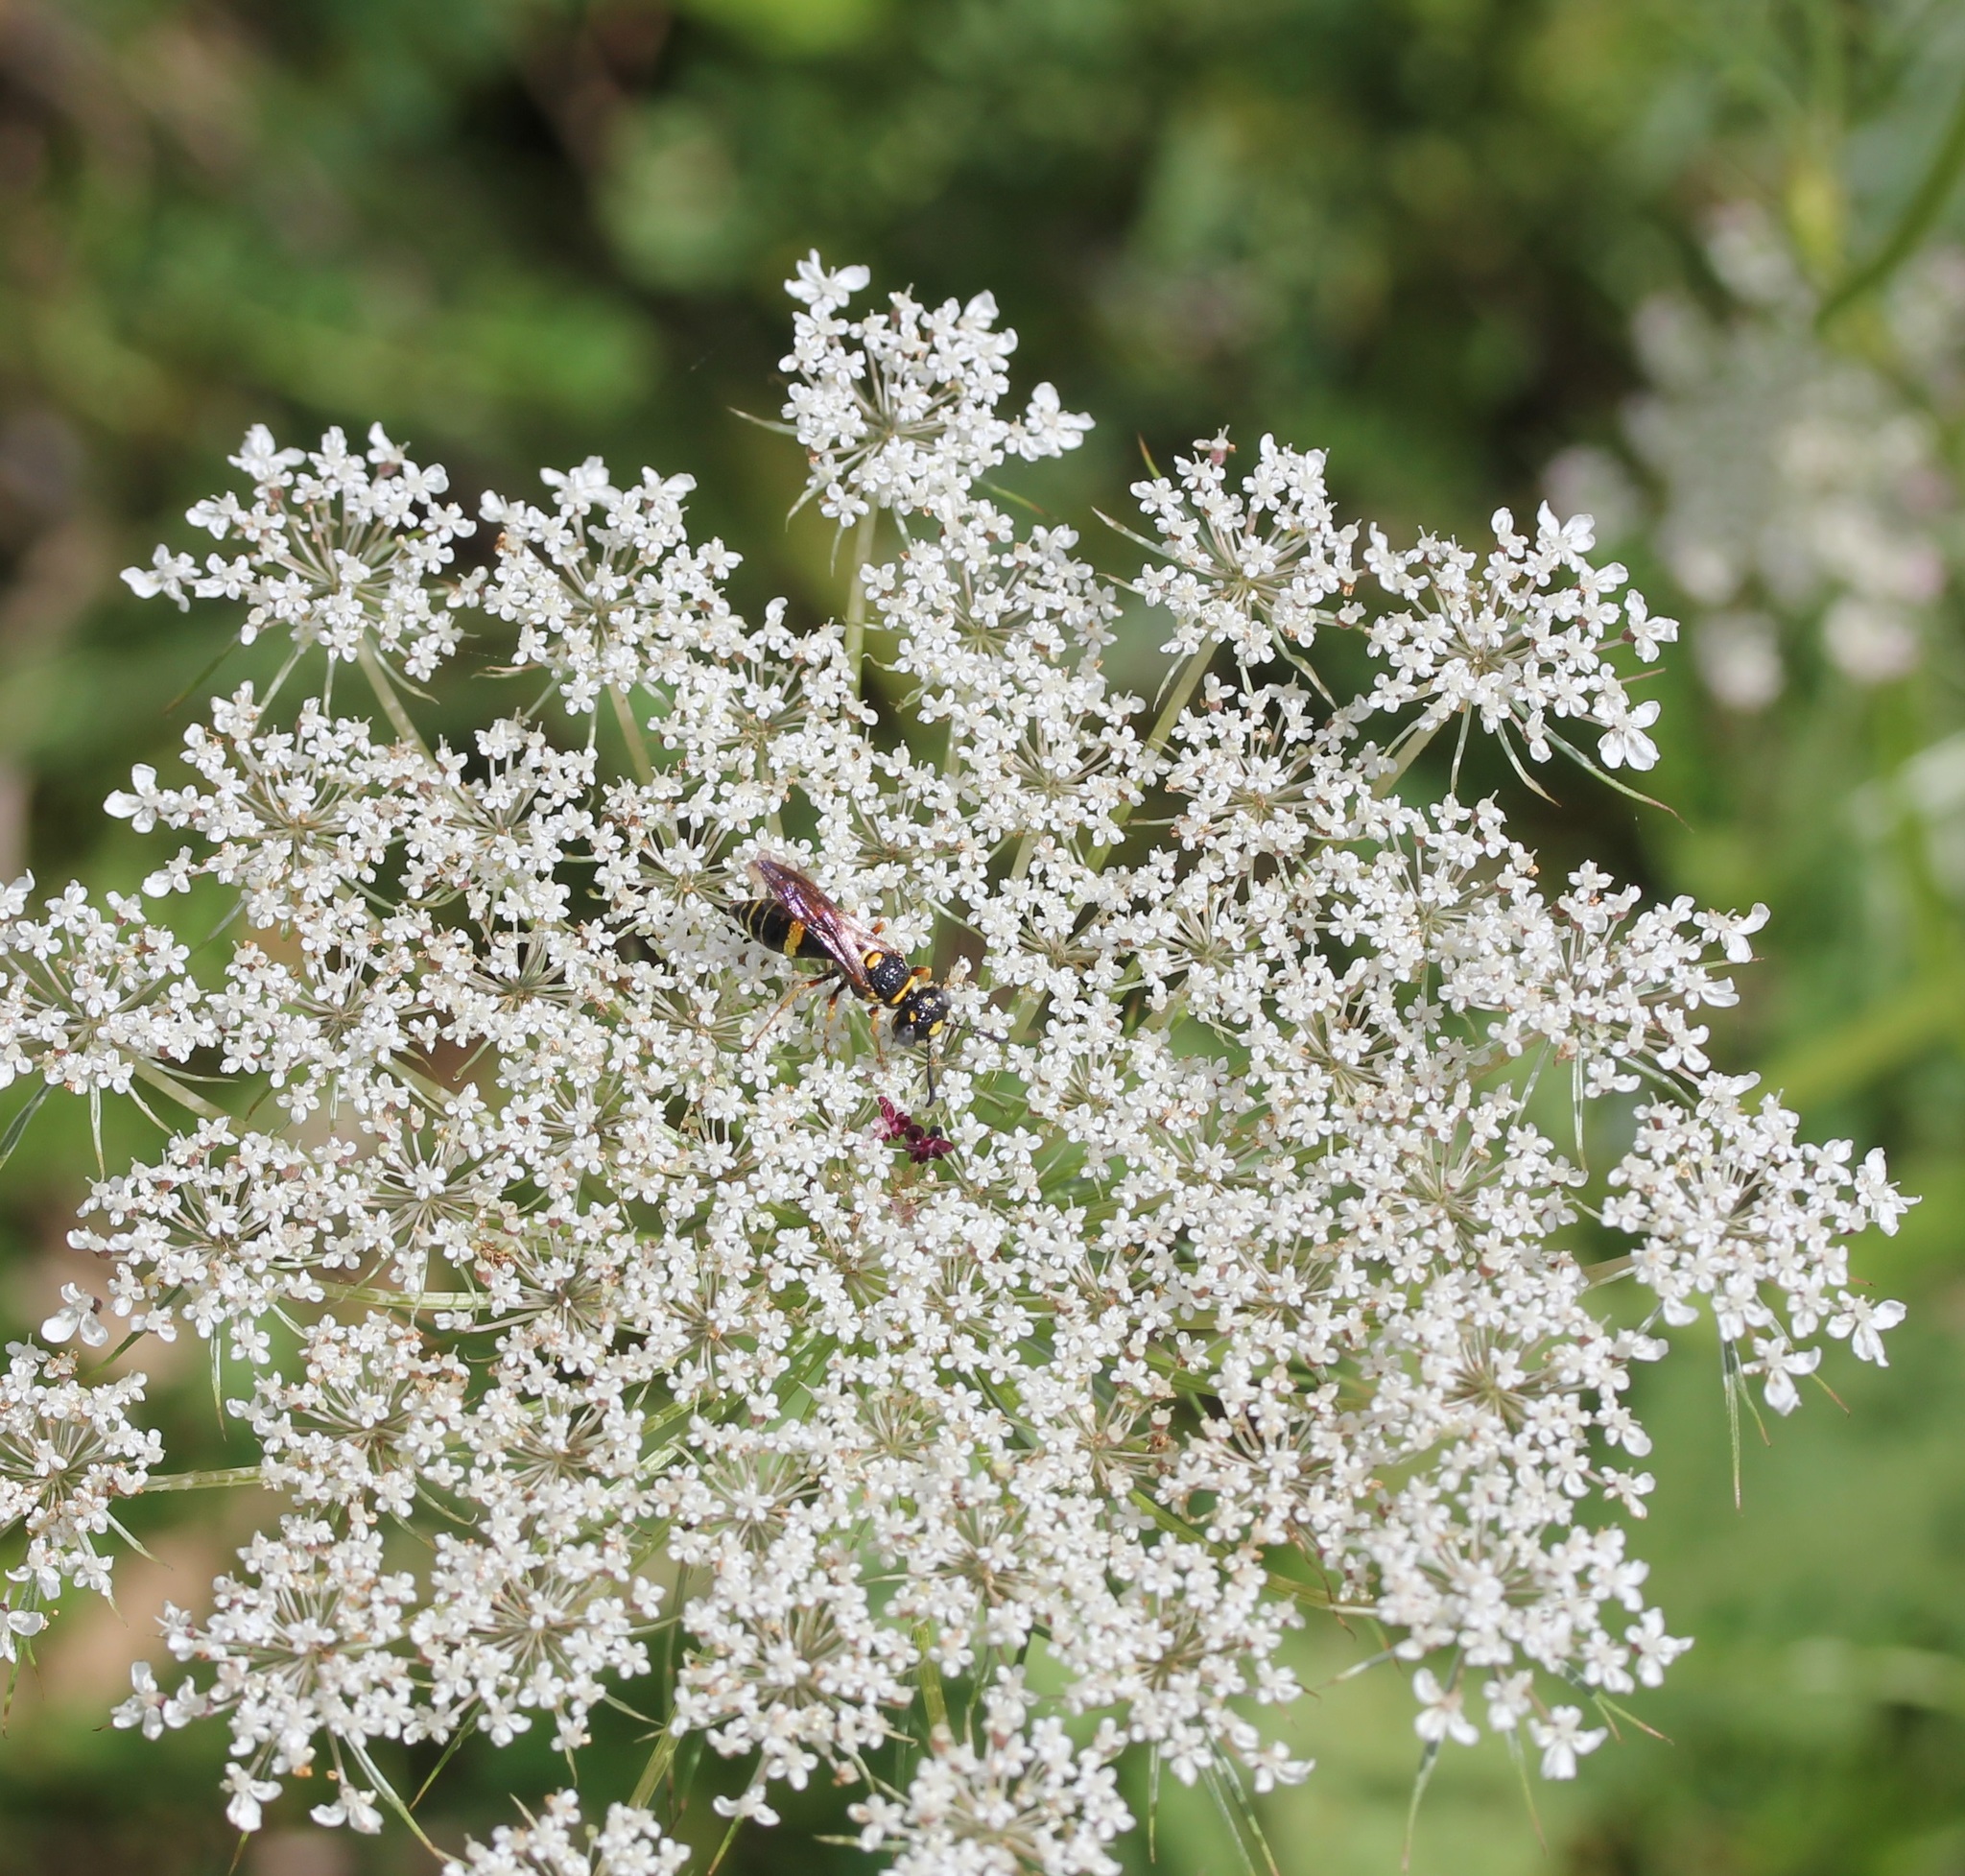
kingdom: Animalia
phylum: Arthropoda
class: Insecta
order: Hymenoptera
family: Crabronidae
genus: Philanthus
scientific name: Philanthus gibbosus
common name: Humped beewolf
